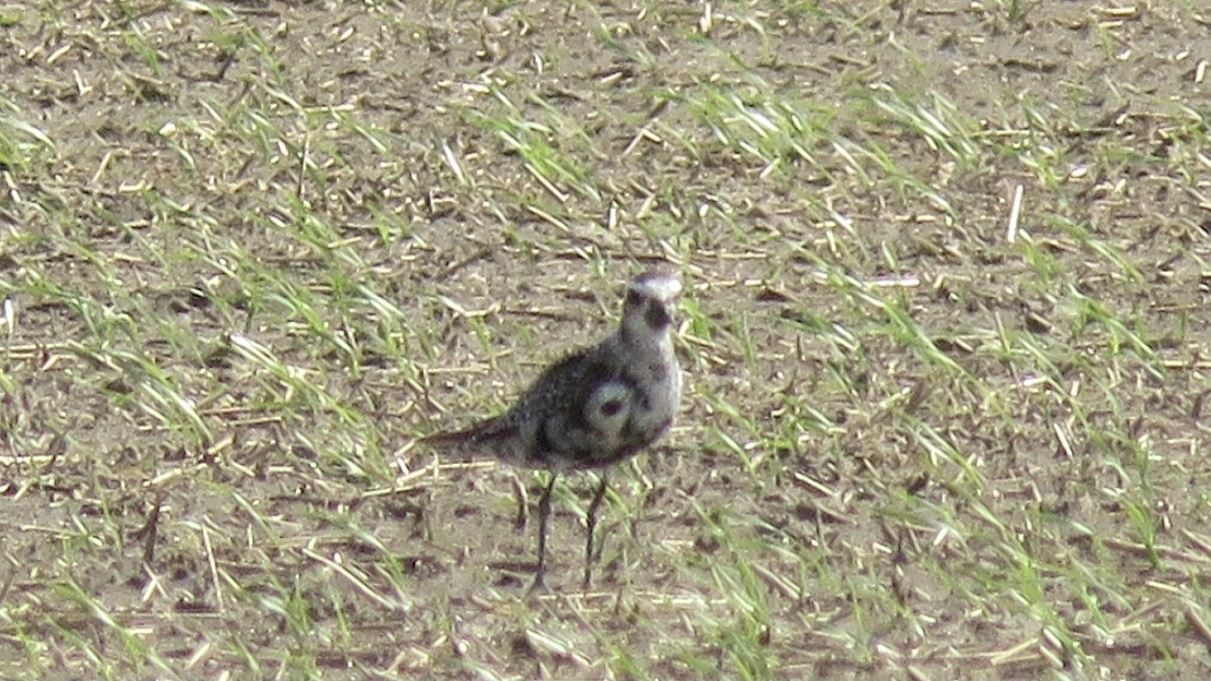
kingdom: Animalia
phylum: Chordata
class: Aves
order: Charadriiformes
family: Charadriidae
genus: Pluvialis
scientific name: Pluvialis dominica
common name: American golden plover
